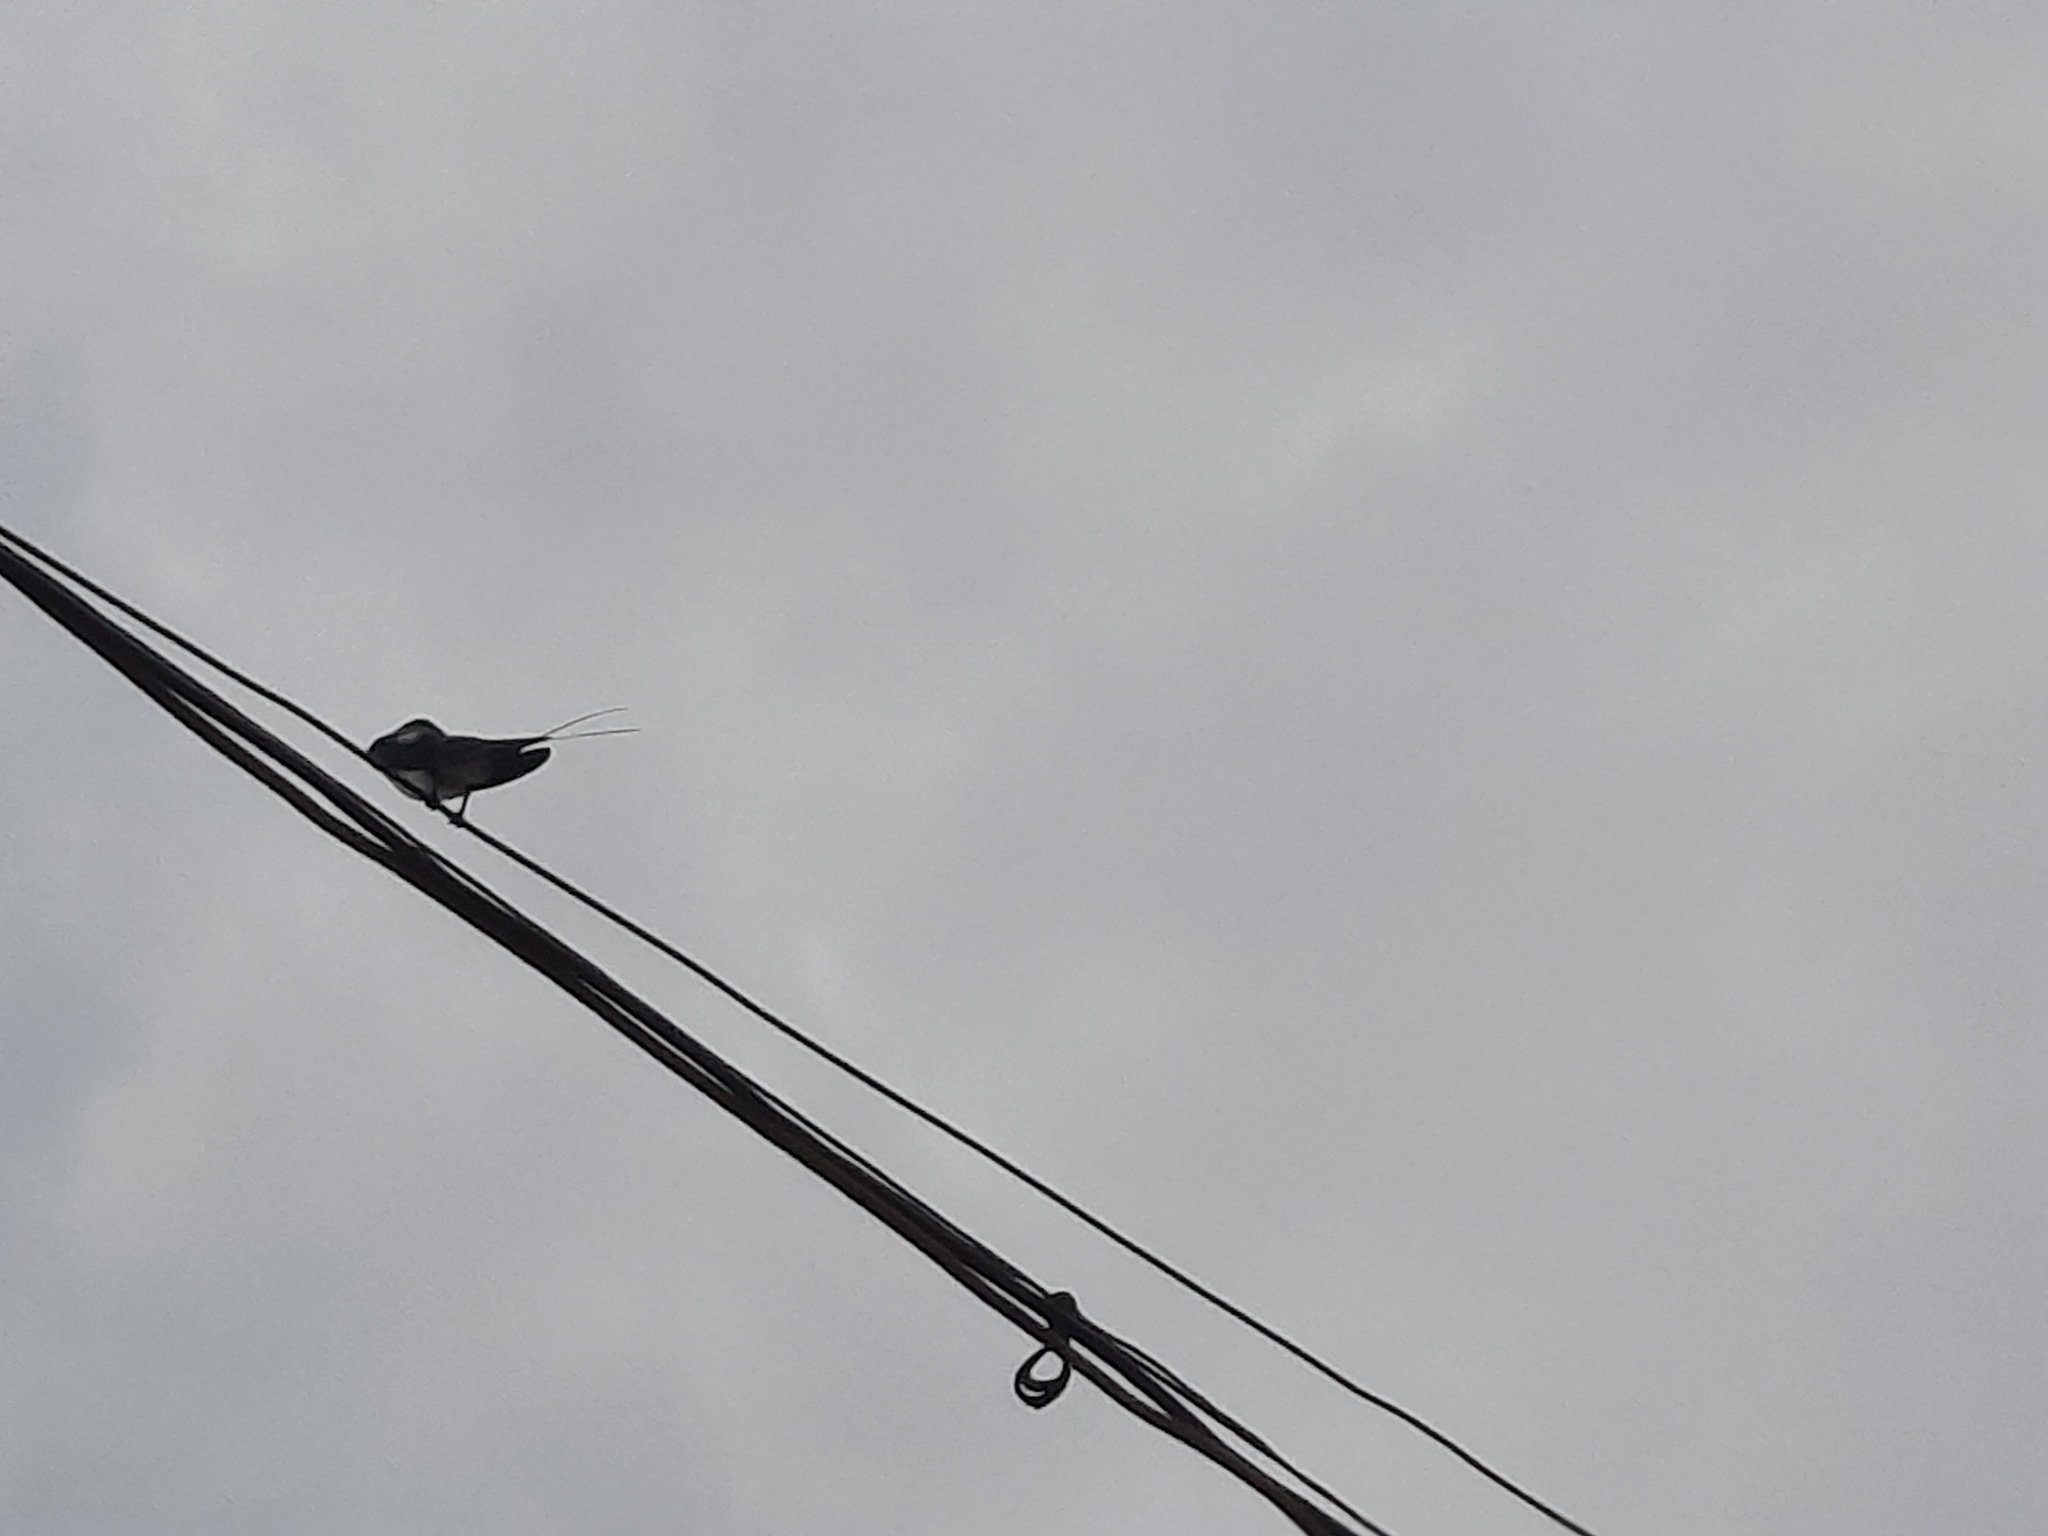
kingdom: Animalia
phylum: Chordata
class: Aves
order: Passeriformes
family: Hirundinidae
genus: Hirundo
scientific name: Hirundo smithii
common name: Wire-tailed swallow
